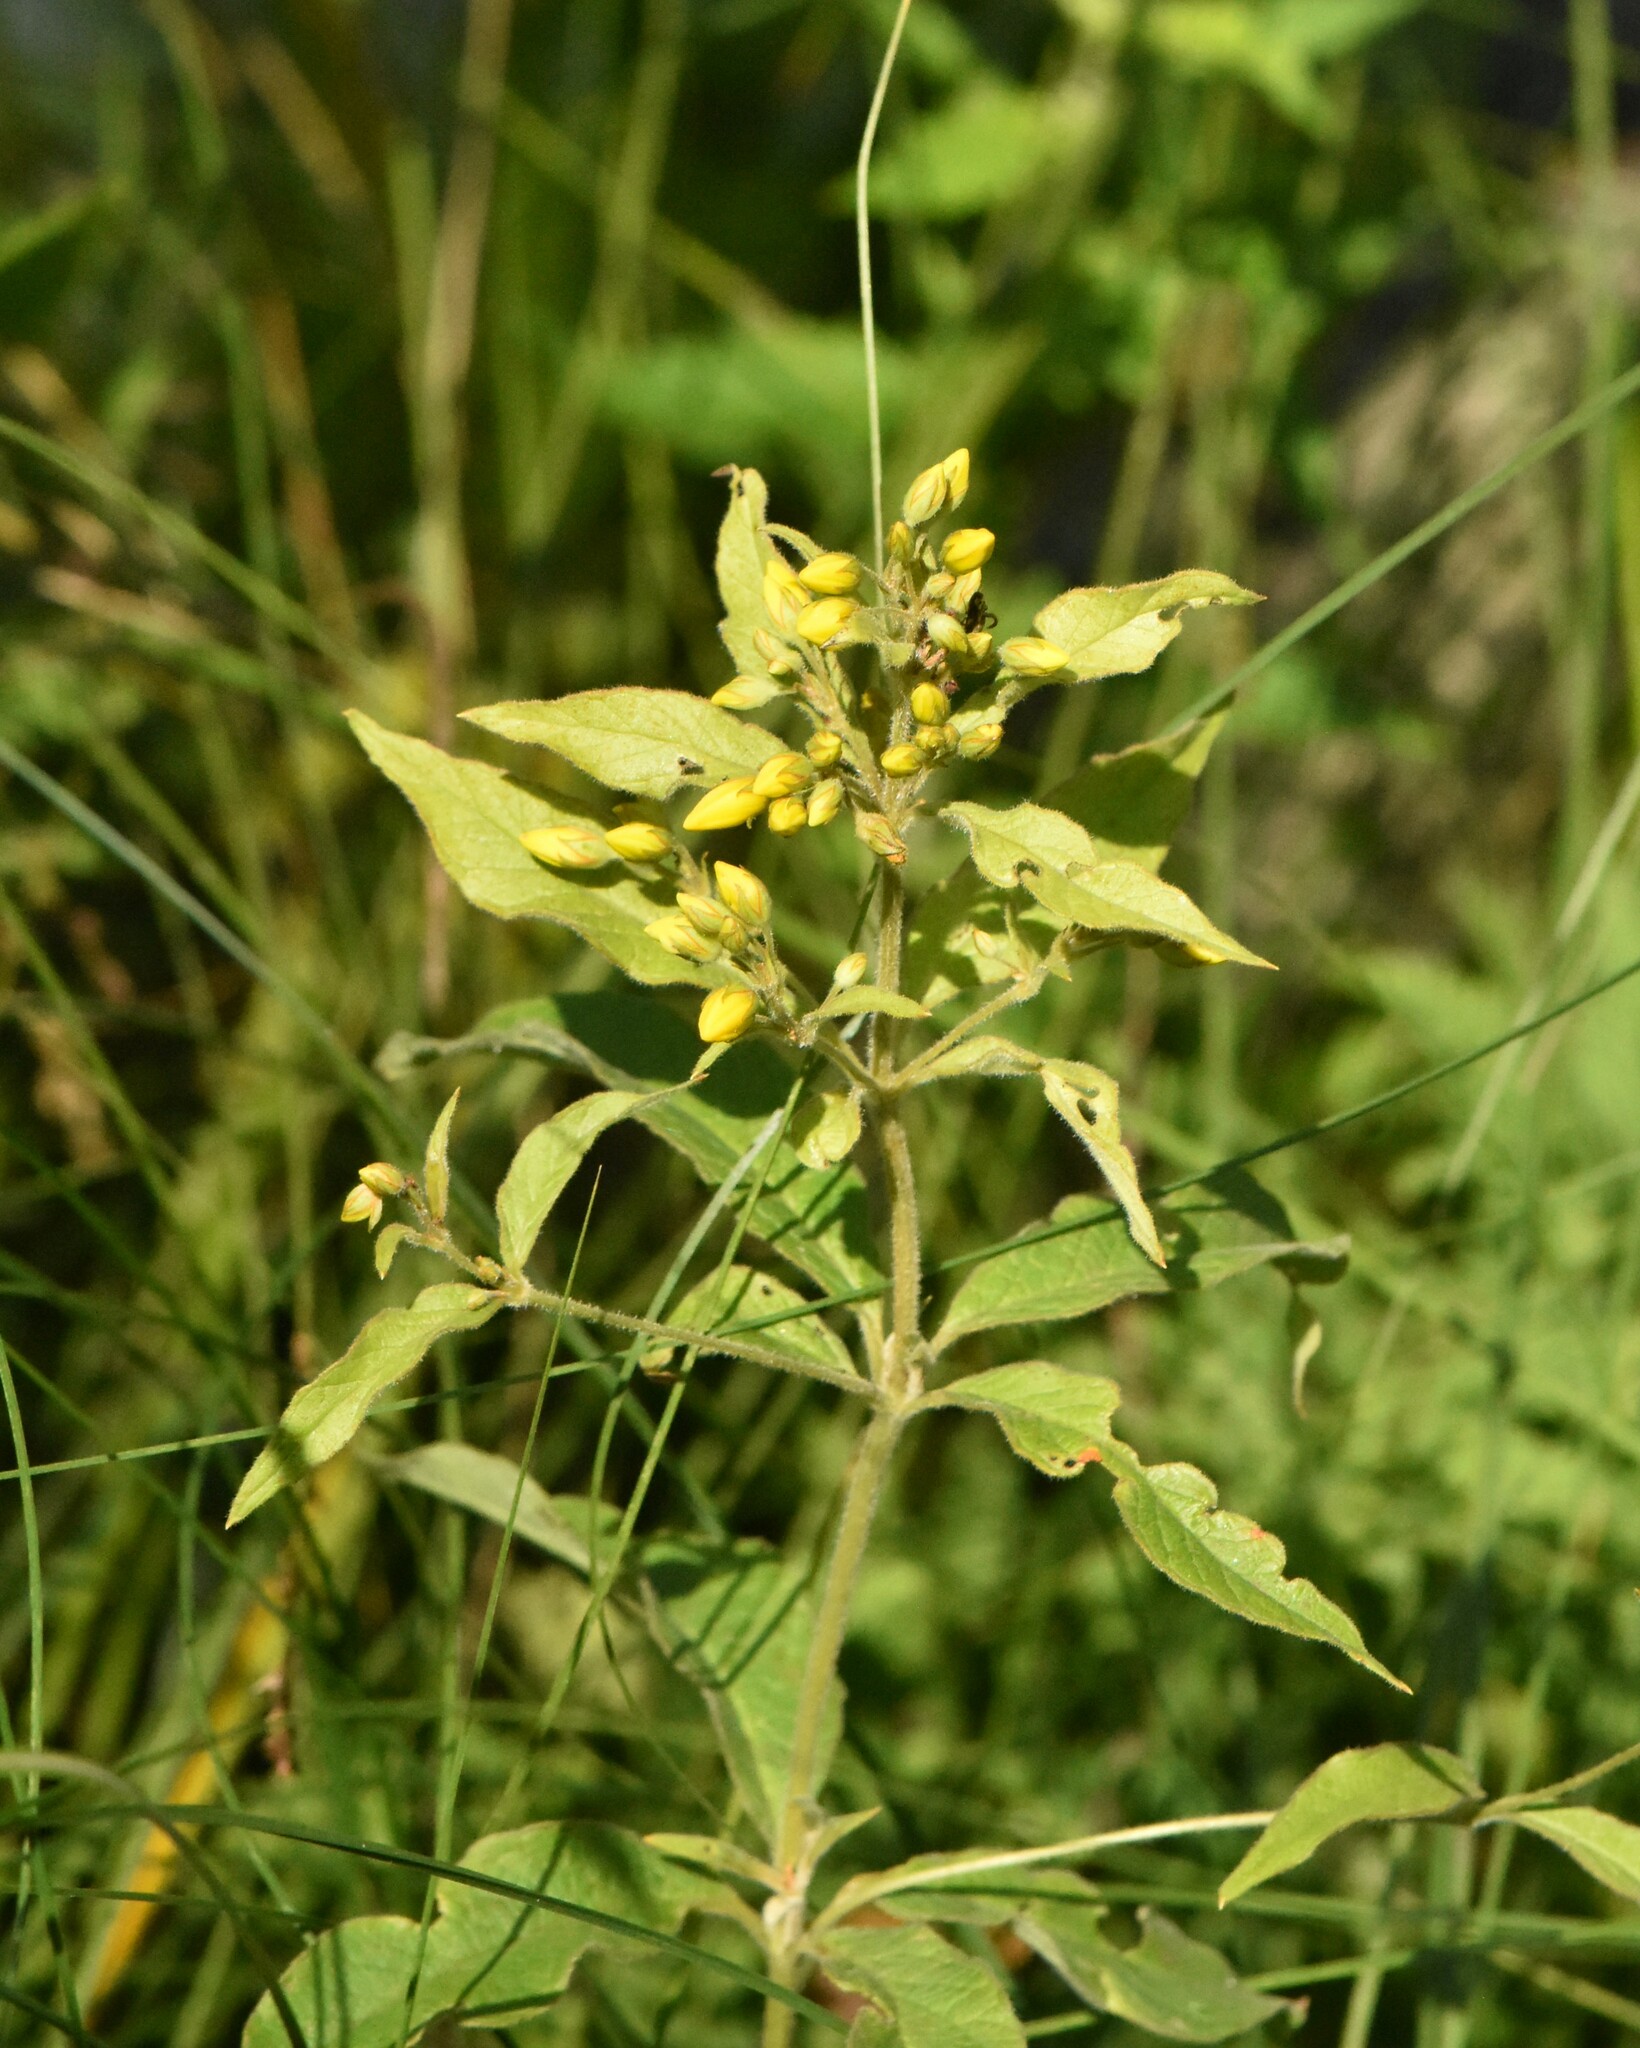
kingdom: Plantae
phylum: Tracheophyta
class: Magnoliopsida
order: Ericales
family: Primulaceae
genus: Lysimachia
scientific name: Lysimachia vulgaris
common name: Yellow loosestrife
